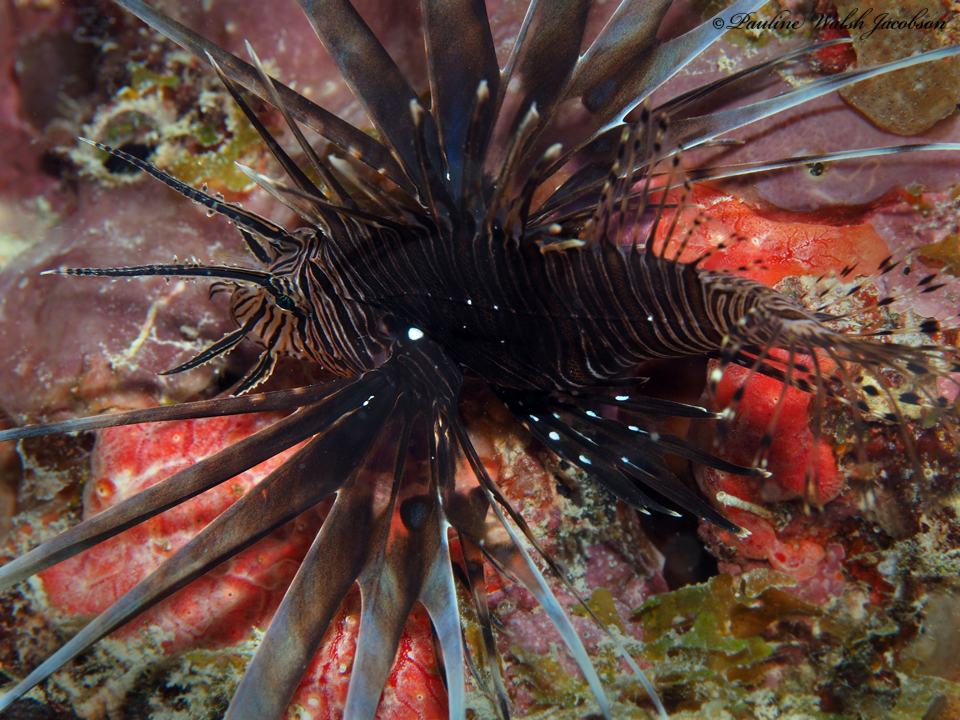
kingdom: Animalia
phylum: Chordata
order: Scorpaeniformes
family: Scorpaenidae
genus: Pterois
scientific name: Pterois volitans
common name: Lionfish
